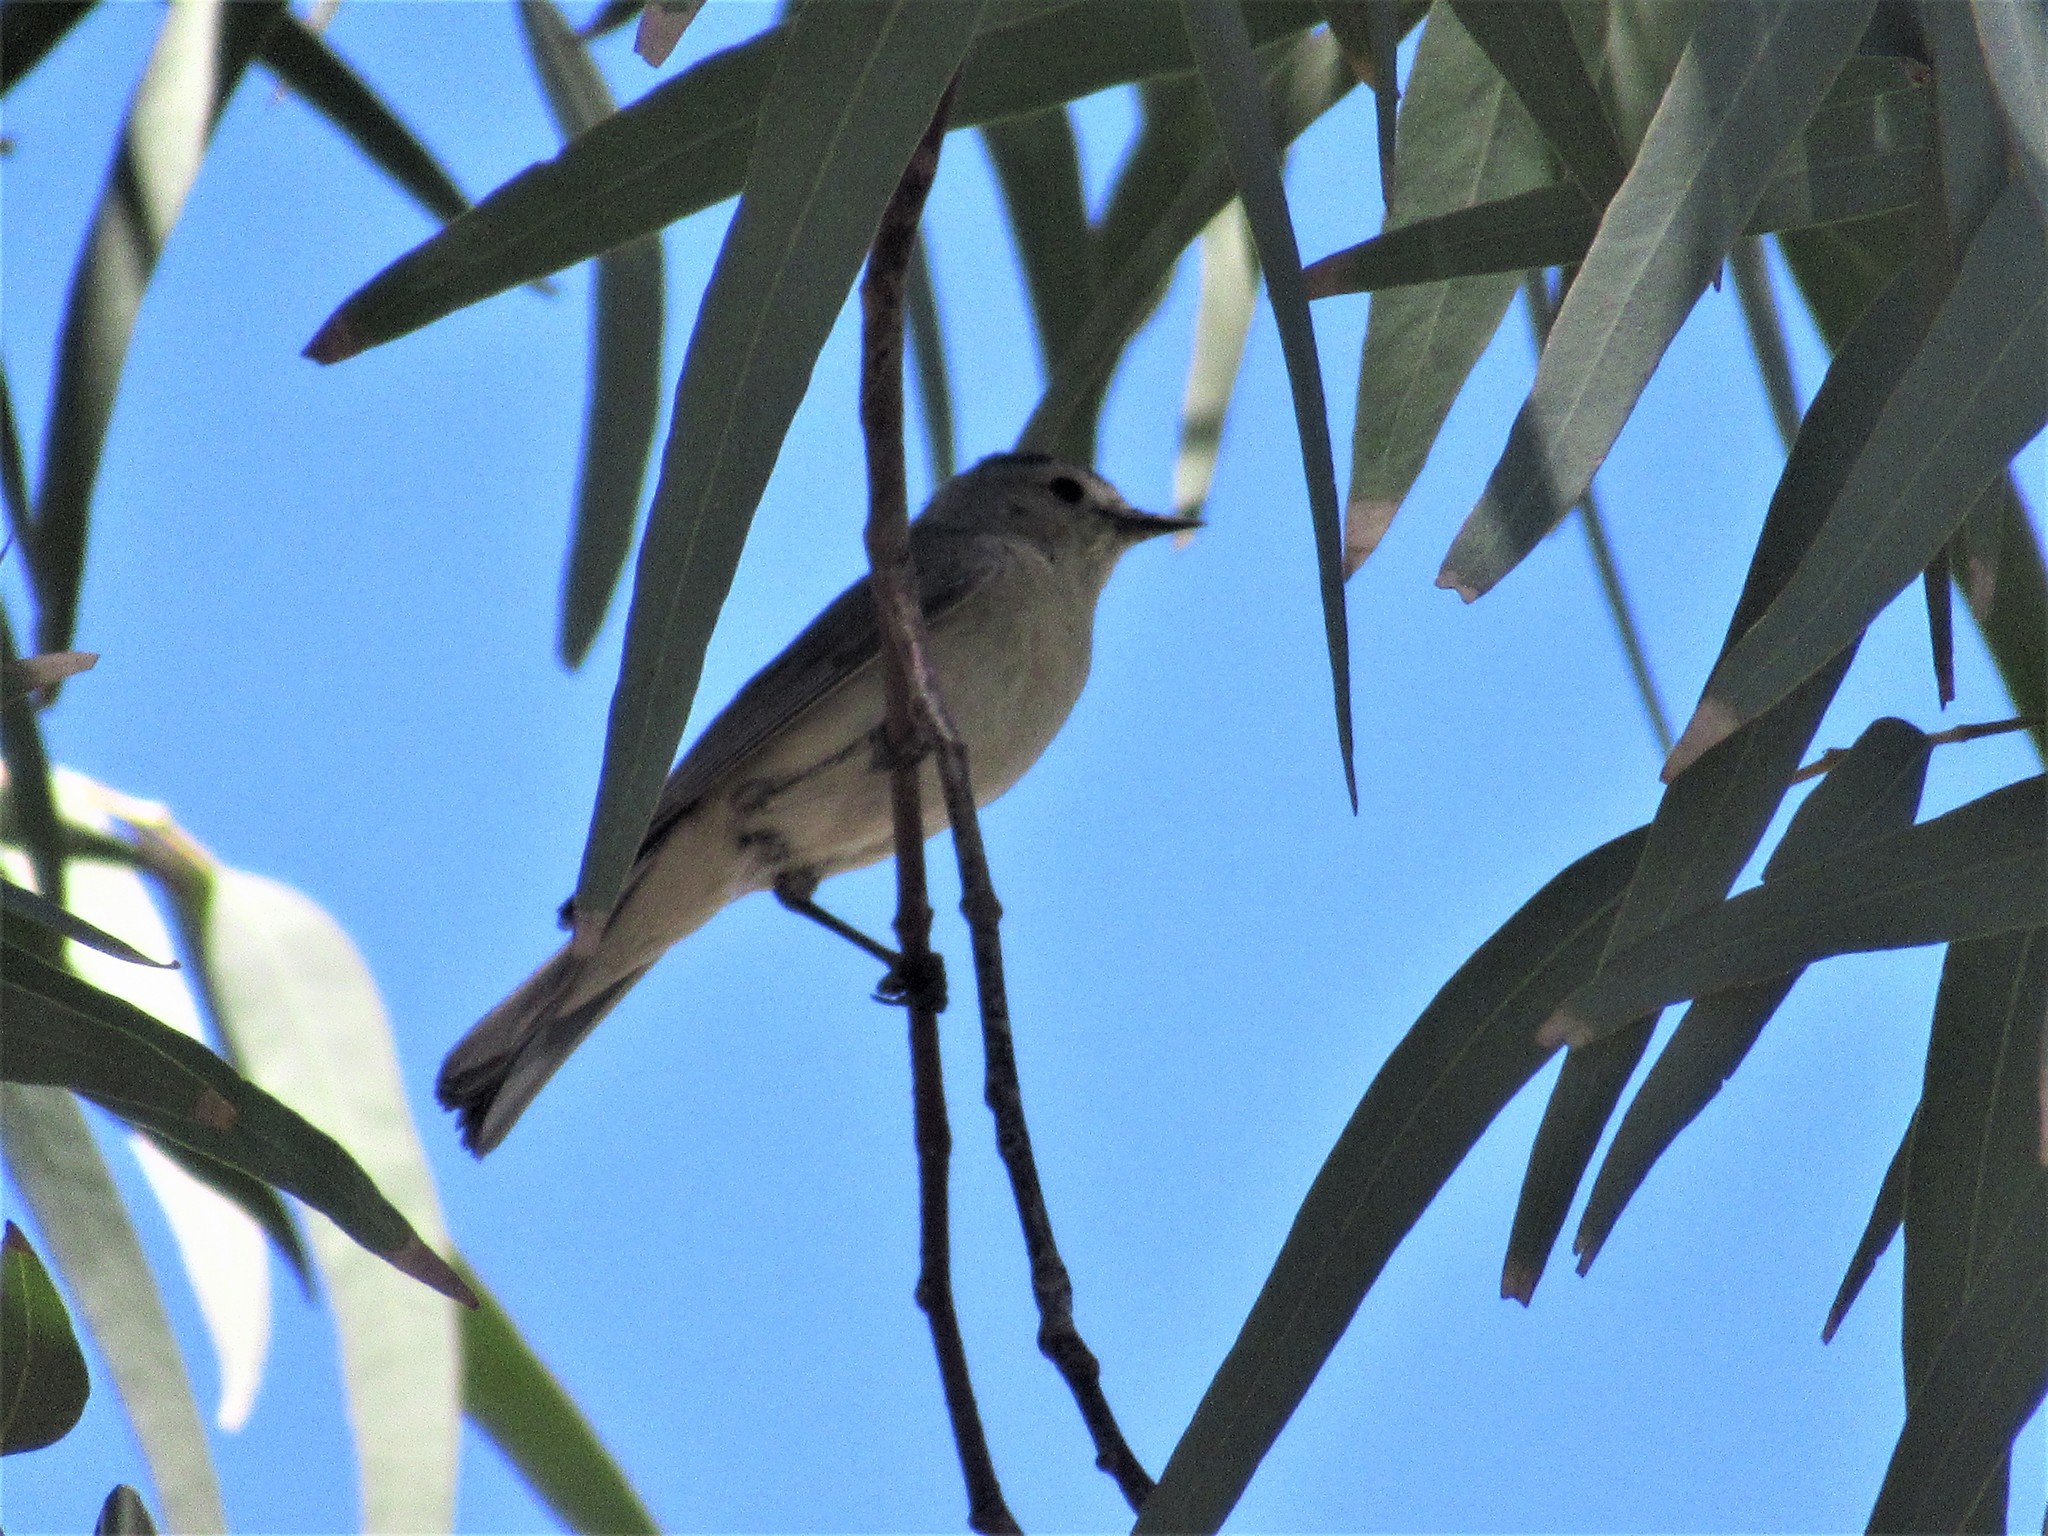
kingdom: Animalia
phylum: Chordata
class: Aves
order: Passeriformes
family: Parulidae
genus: Leiothlypis
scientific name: Leiothlypis luciae
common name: Lucy's warbler
